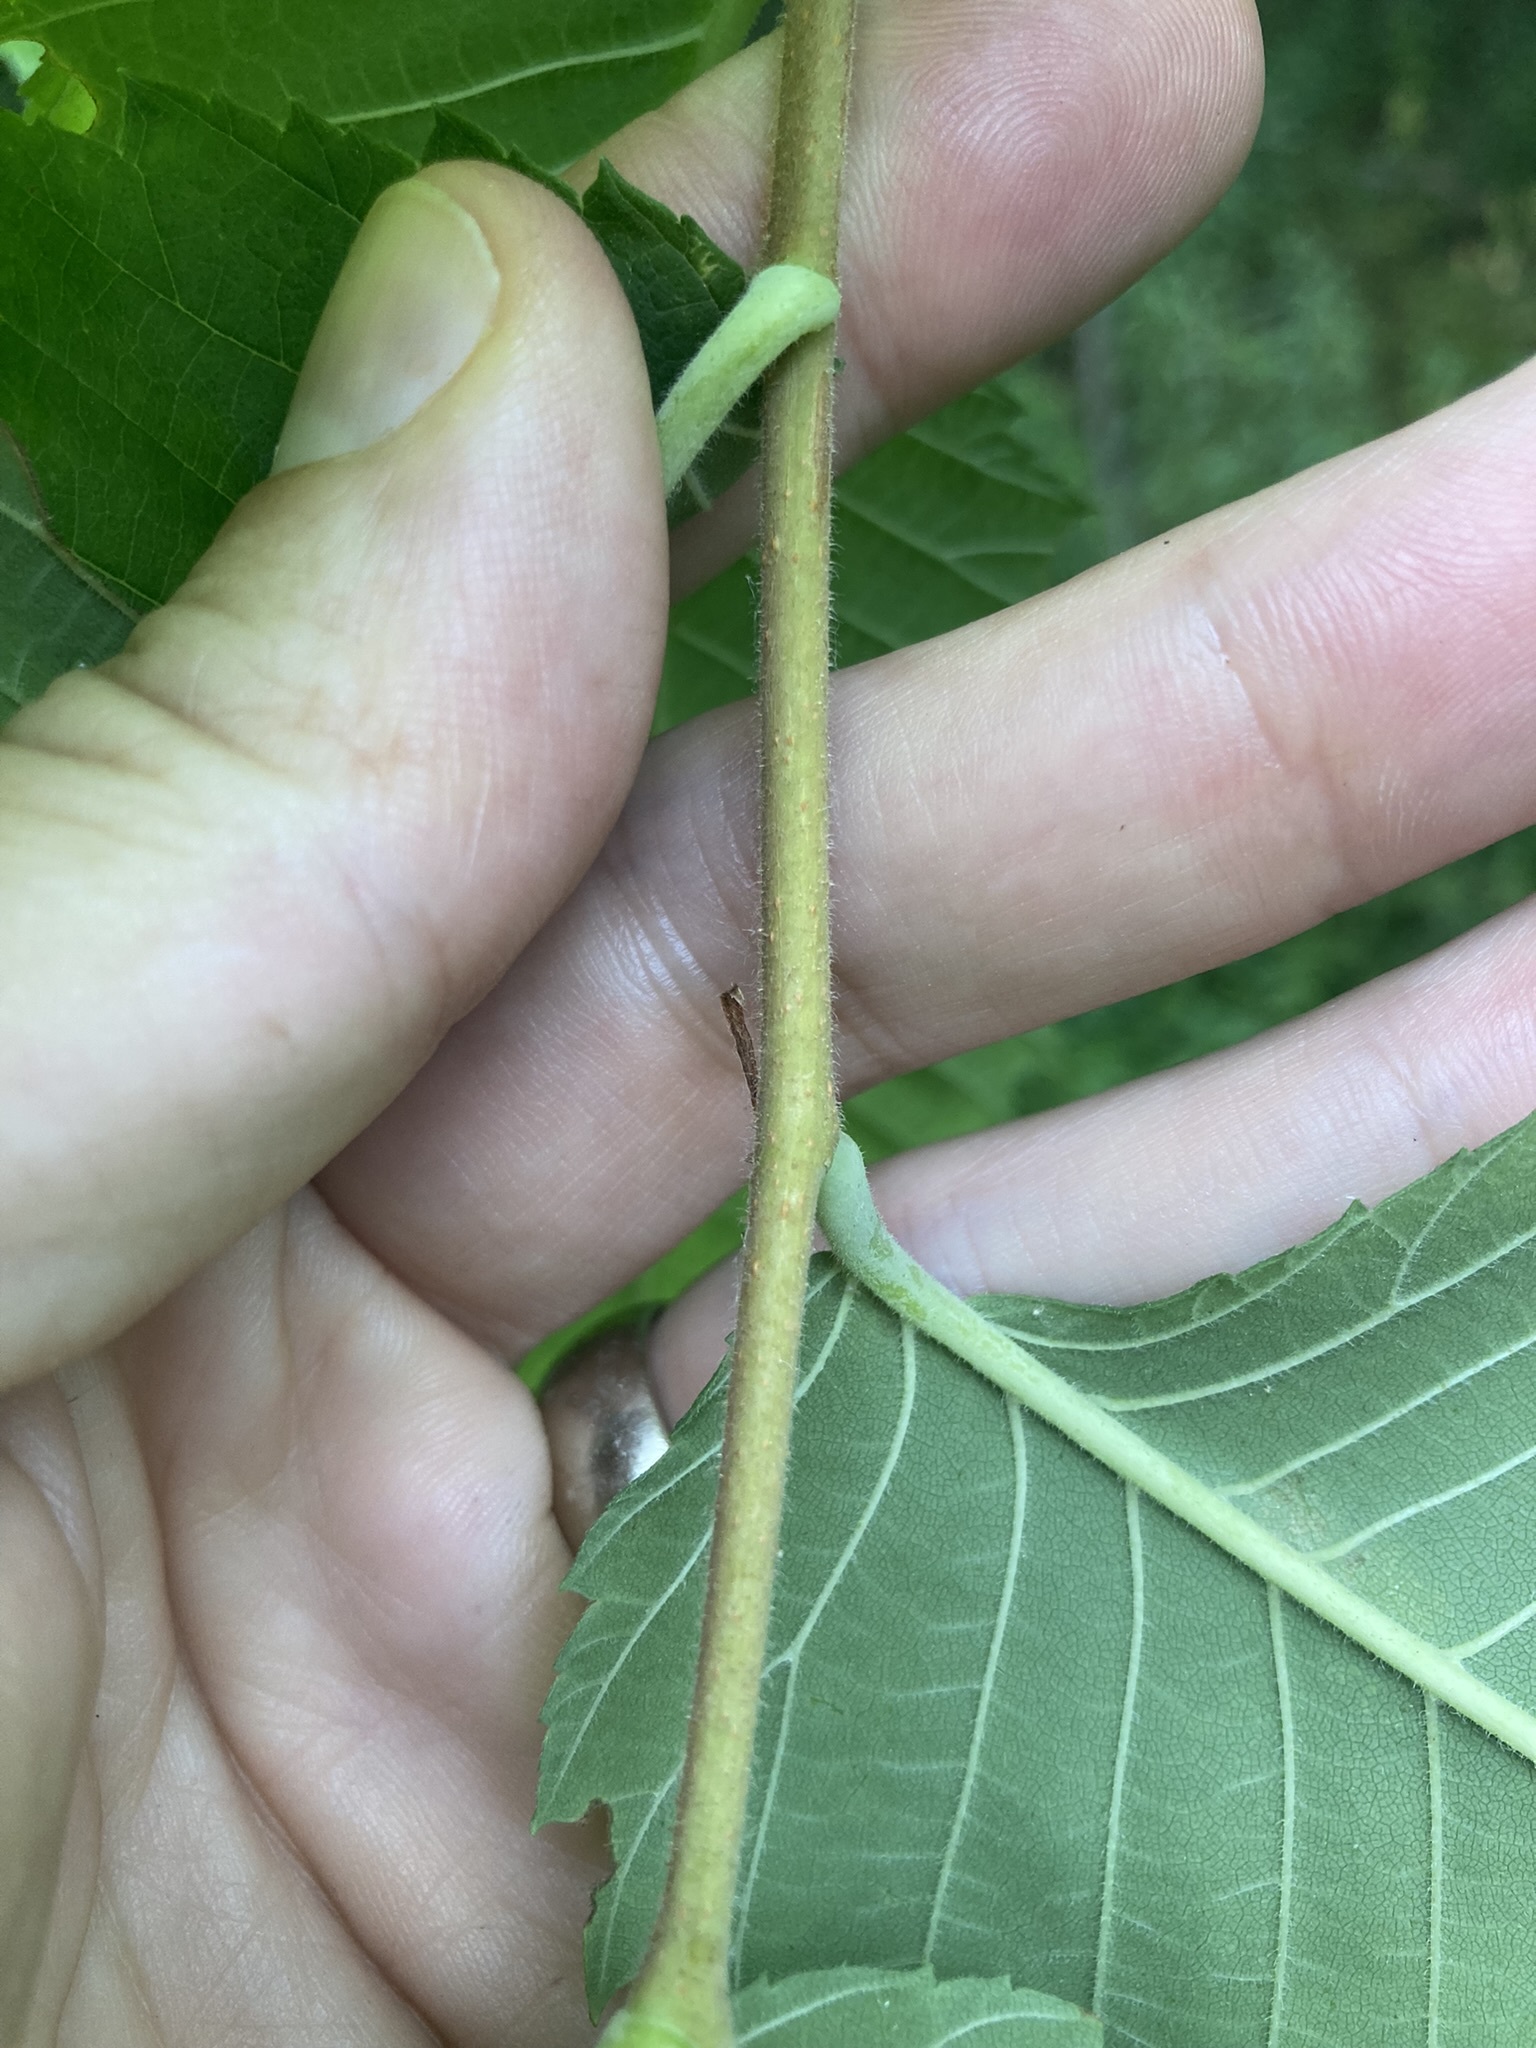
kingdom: Plantae
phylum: Tracheophyta
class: Magnoliopsida
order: Rosales
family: Ulmaceae
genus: Ulmus
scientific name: Ulmus americana
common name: American elm
